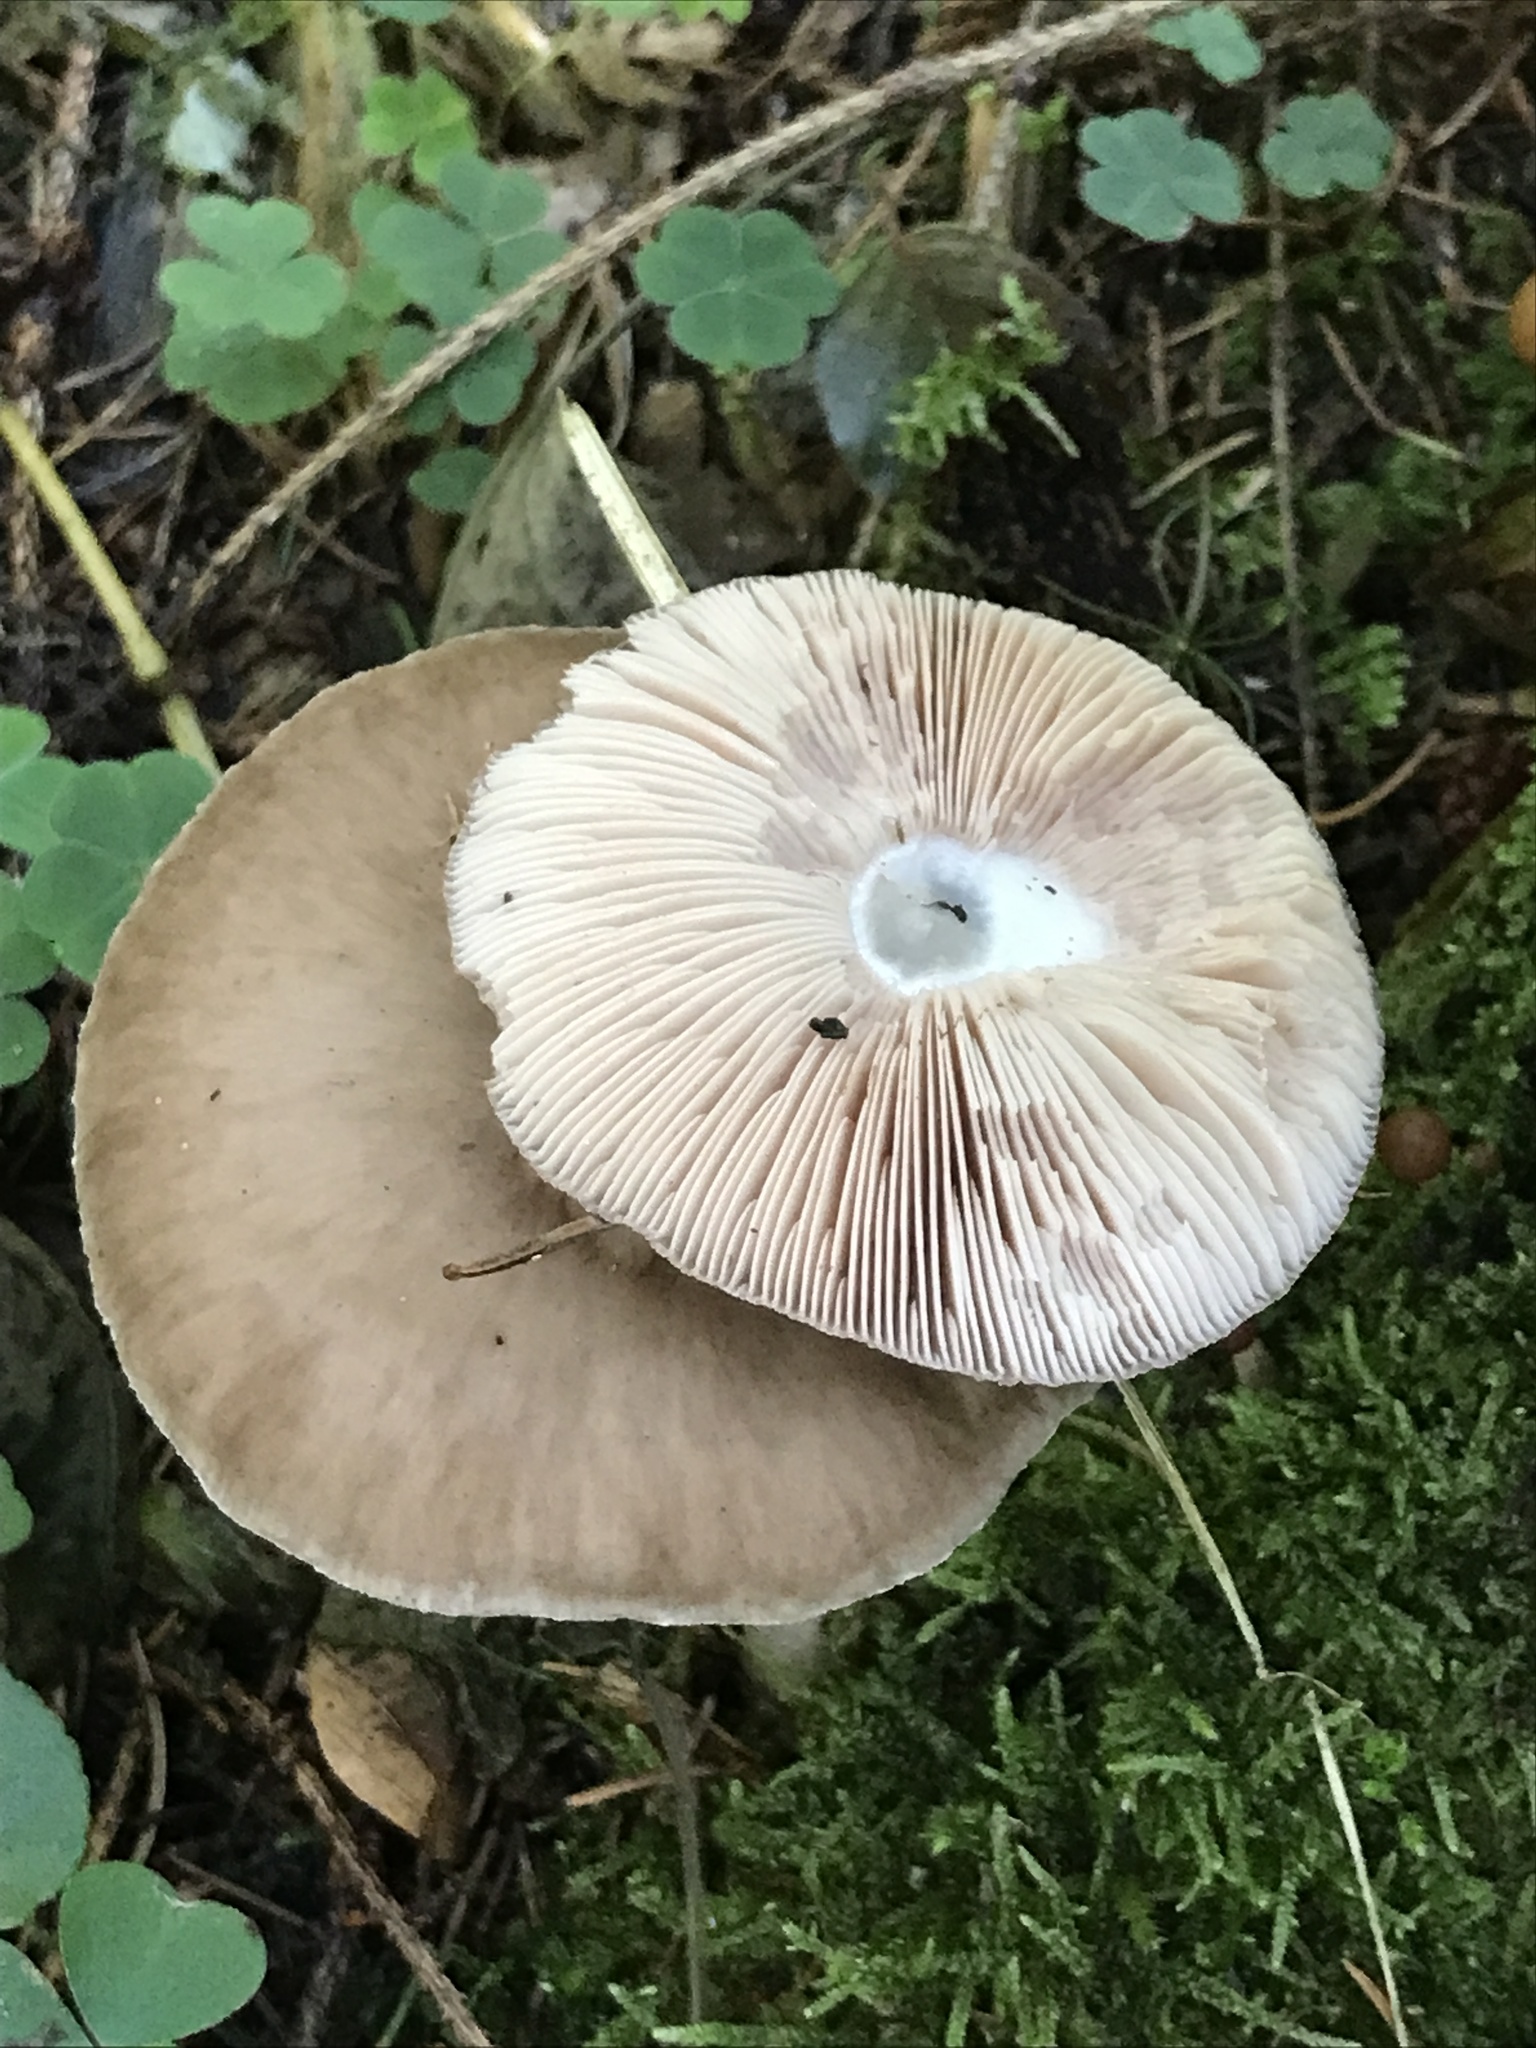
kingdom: Fungi
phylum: Basidiomycota
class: Agaricomycetes
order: Agaricales
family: Pluteaceae
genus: Pluteus
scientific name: Pluteus cervinus
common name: Deer shield
